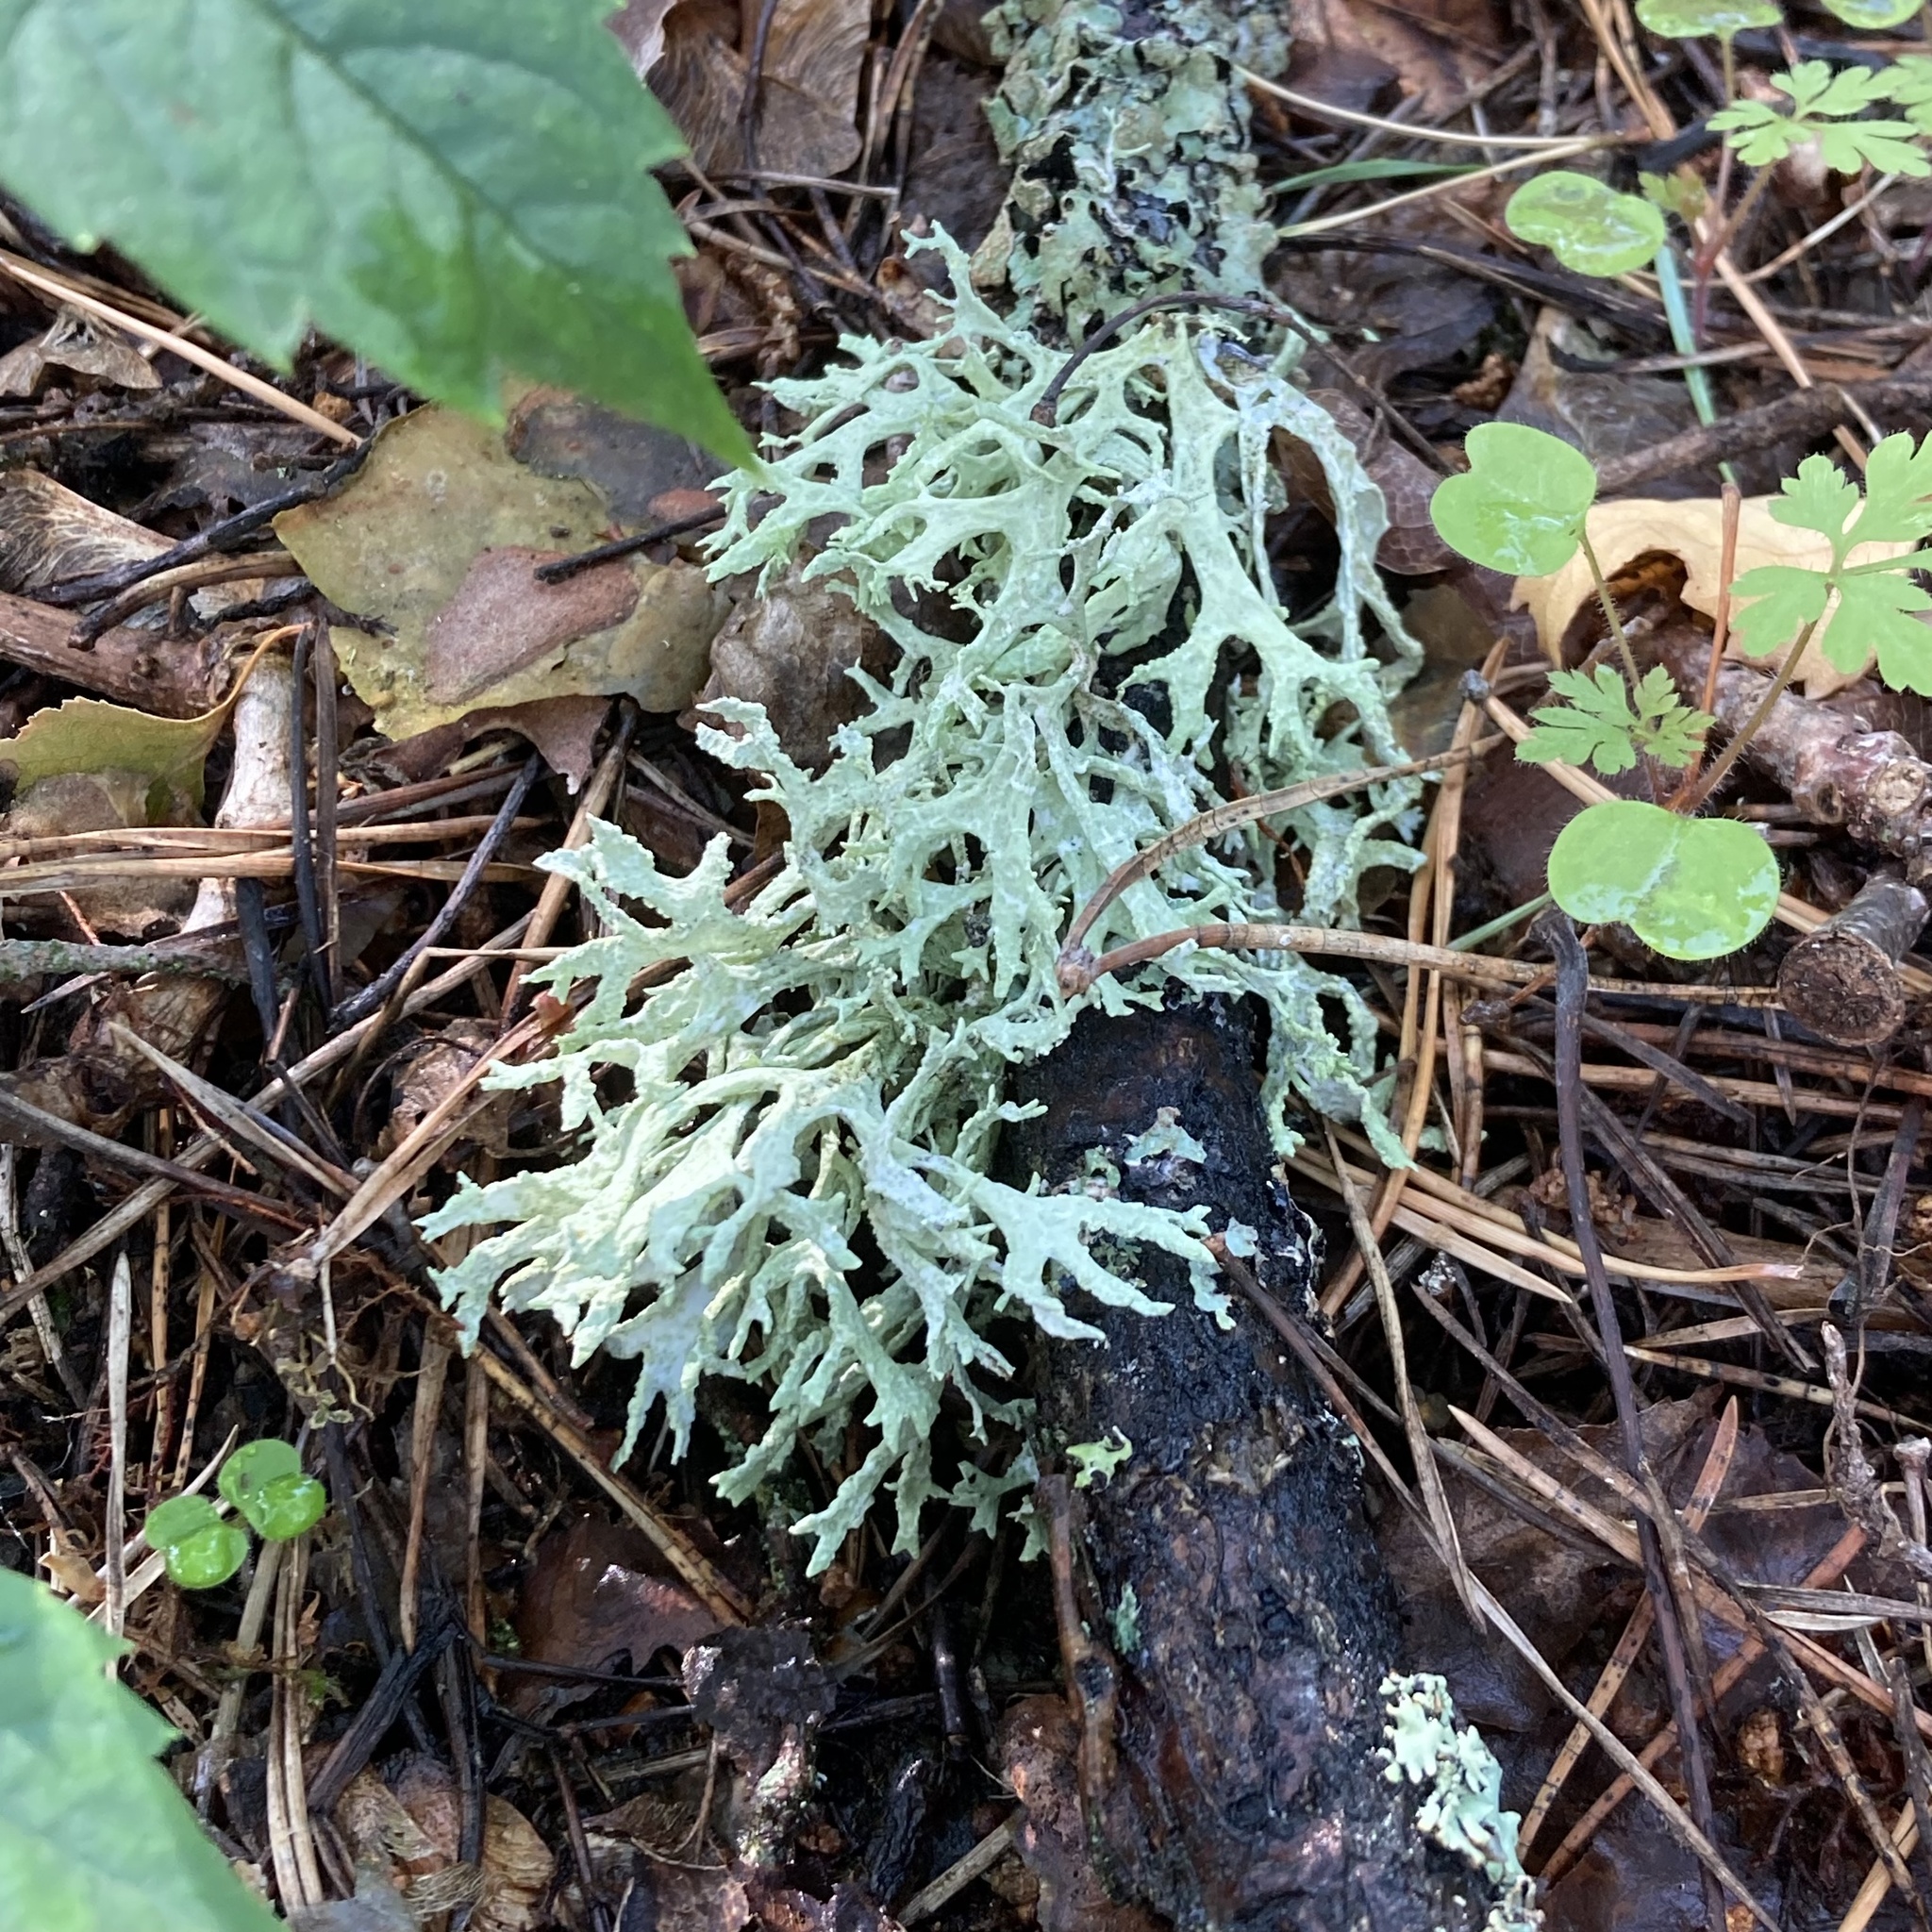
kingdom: Fungi
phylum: Ascomycota
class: Lecanoromycetes
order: Lecanorales
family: Parmeliaceae
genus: Evernia
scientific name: Evernia prunastri
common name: Oak moss
